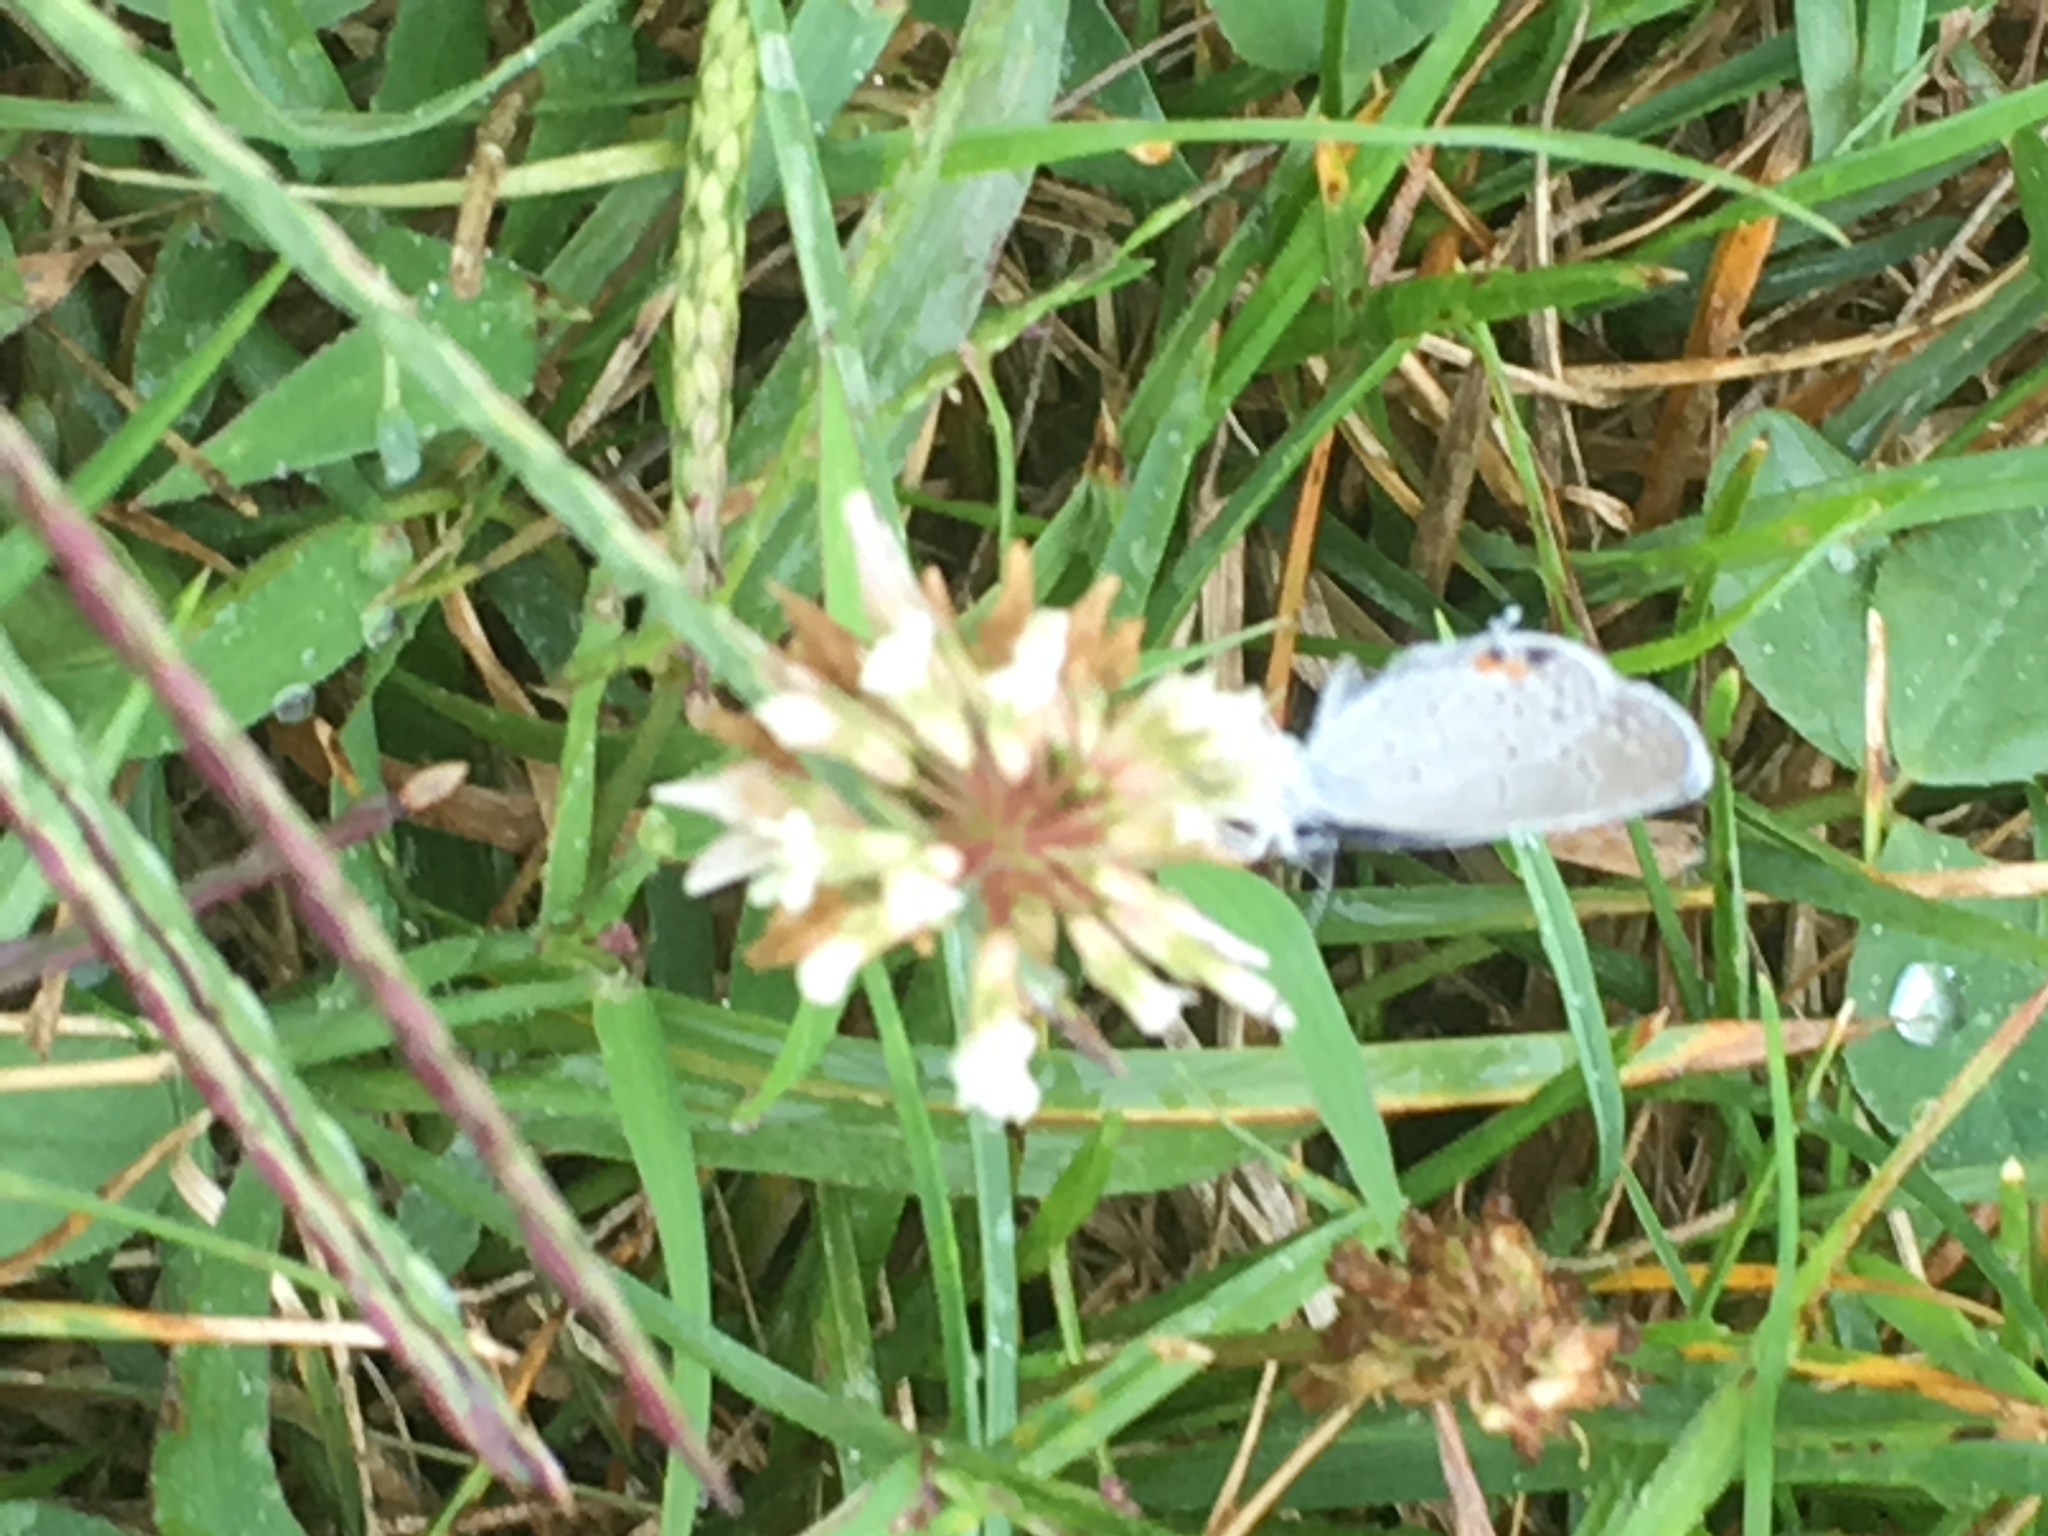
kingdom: Animalia
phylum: Arthropoda
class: Insecta
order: Lepidoptera
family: Lycaenidae
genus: Elkalyce
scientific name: Elkalyce comyntas
